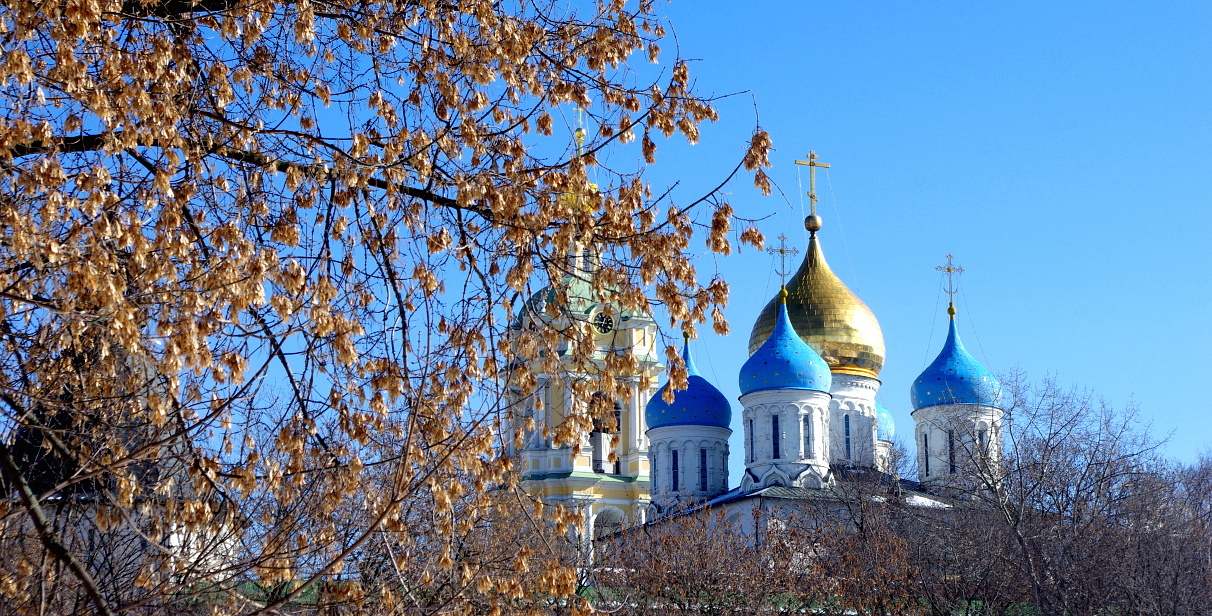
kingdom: Plantae
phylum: Tracheophyta
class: Magnoliopsida
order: Sapindales
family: Sapindaceae
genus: Acer
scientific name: Acer negundo
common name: Ashleaf maple
